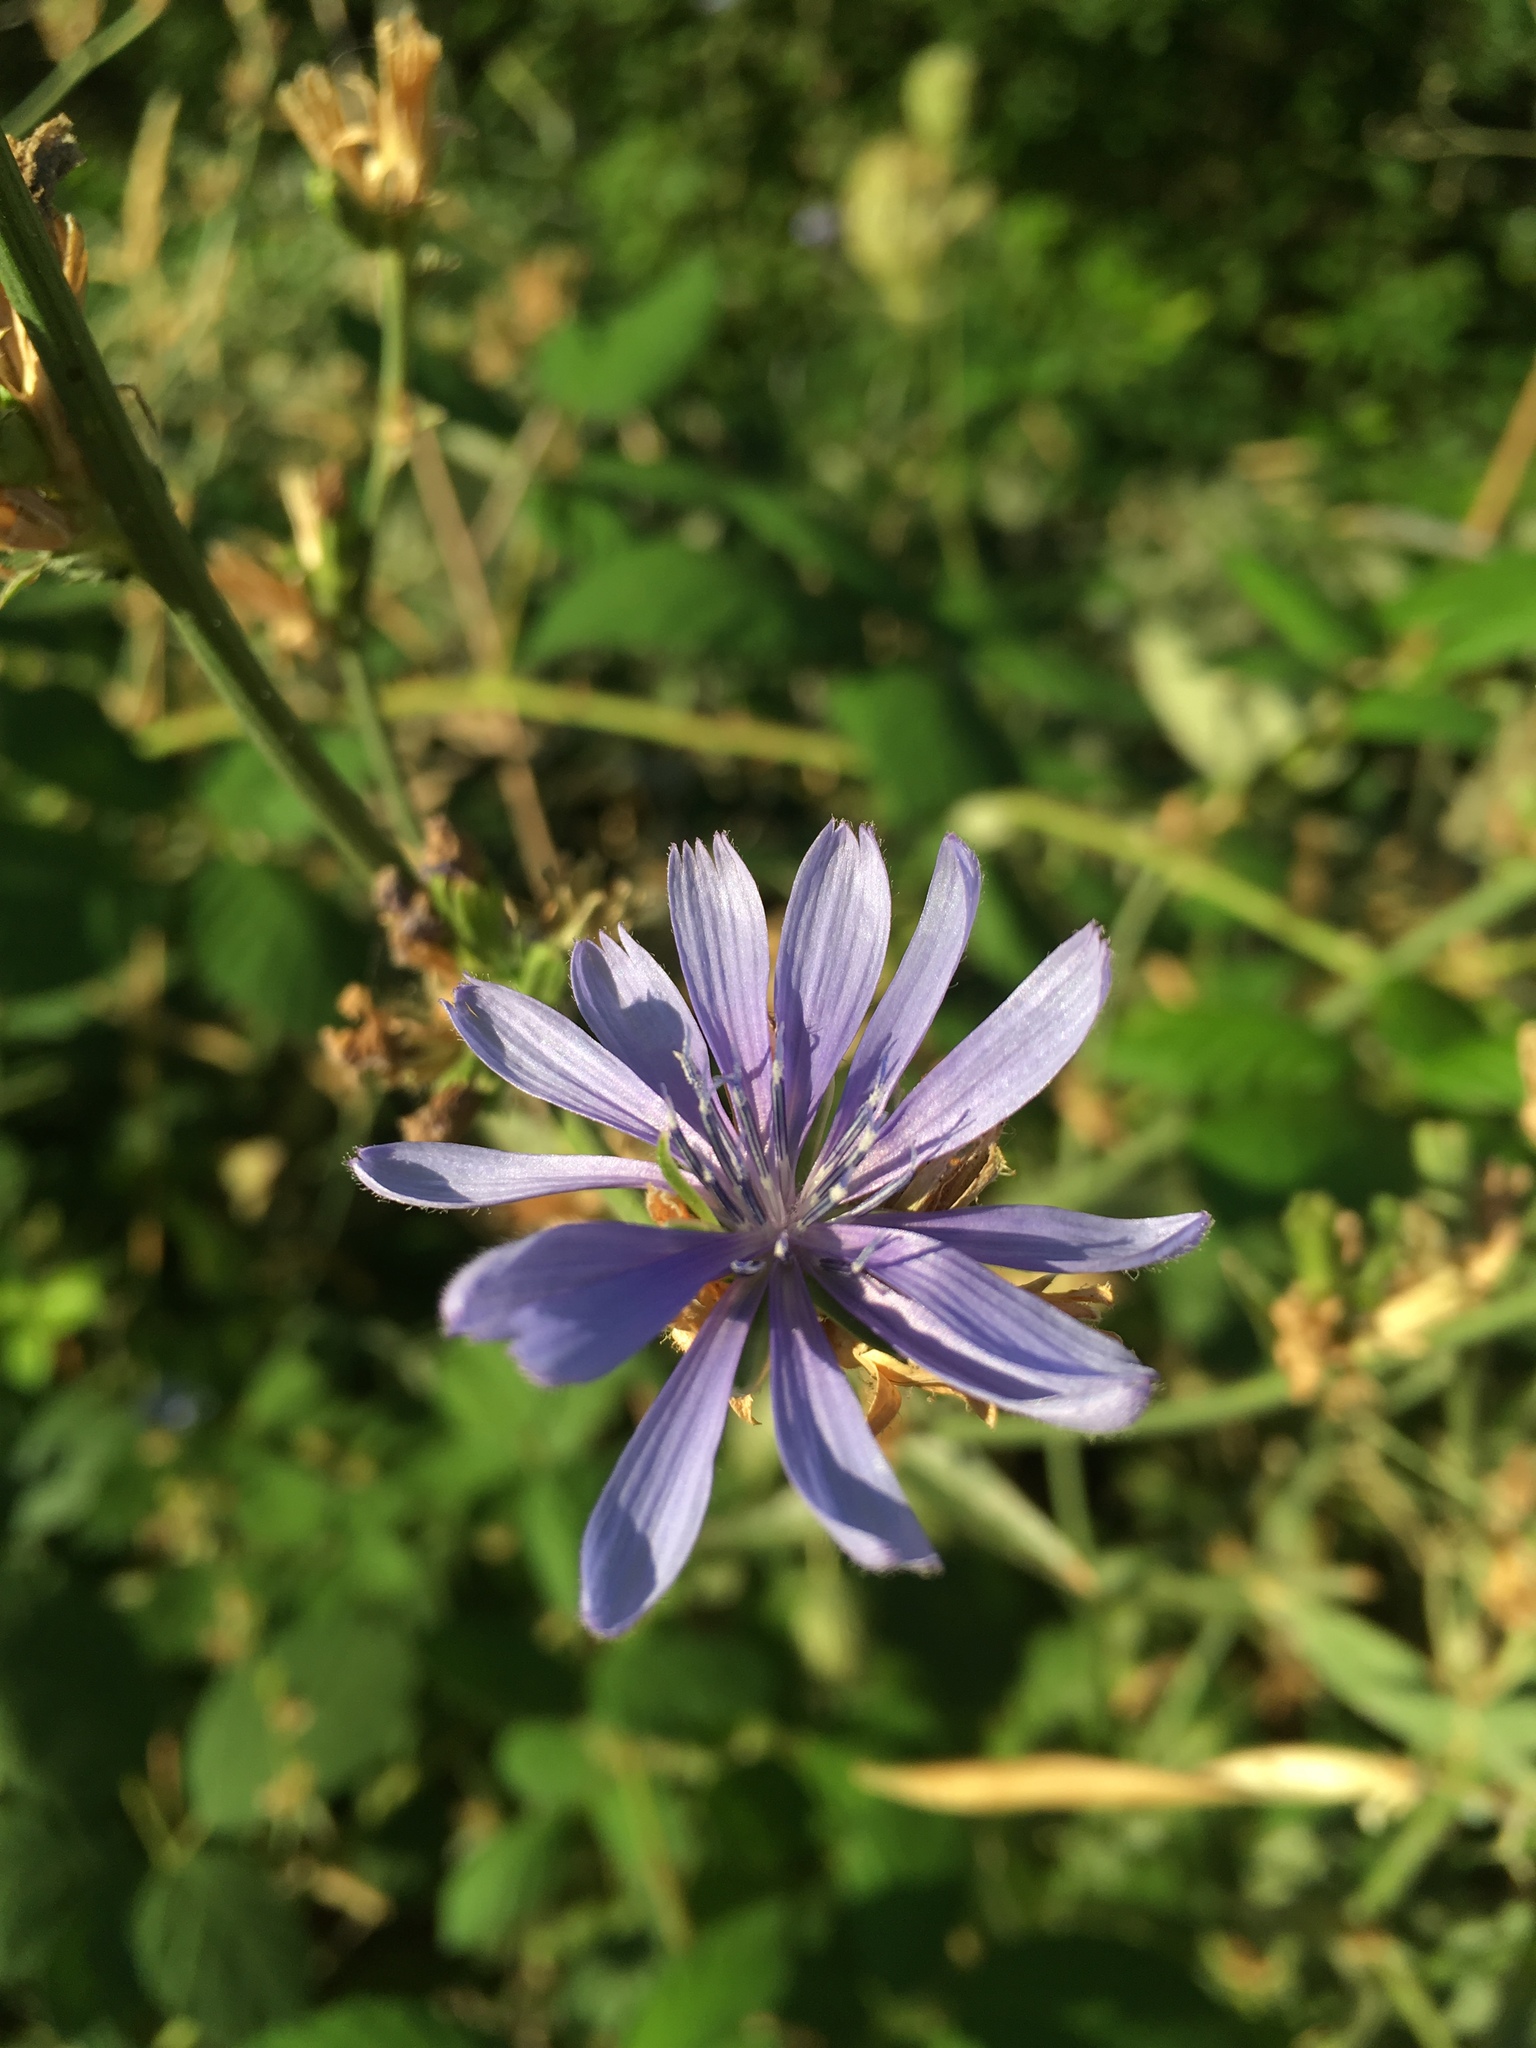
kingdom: Plantae
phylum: Tracheophyta
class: Magnoliopsida
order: Asterales
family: Asteraceae
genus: Cichorium
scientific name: Cichorium intybus
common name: Chicory
